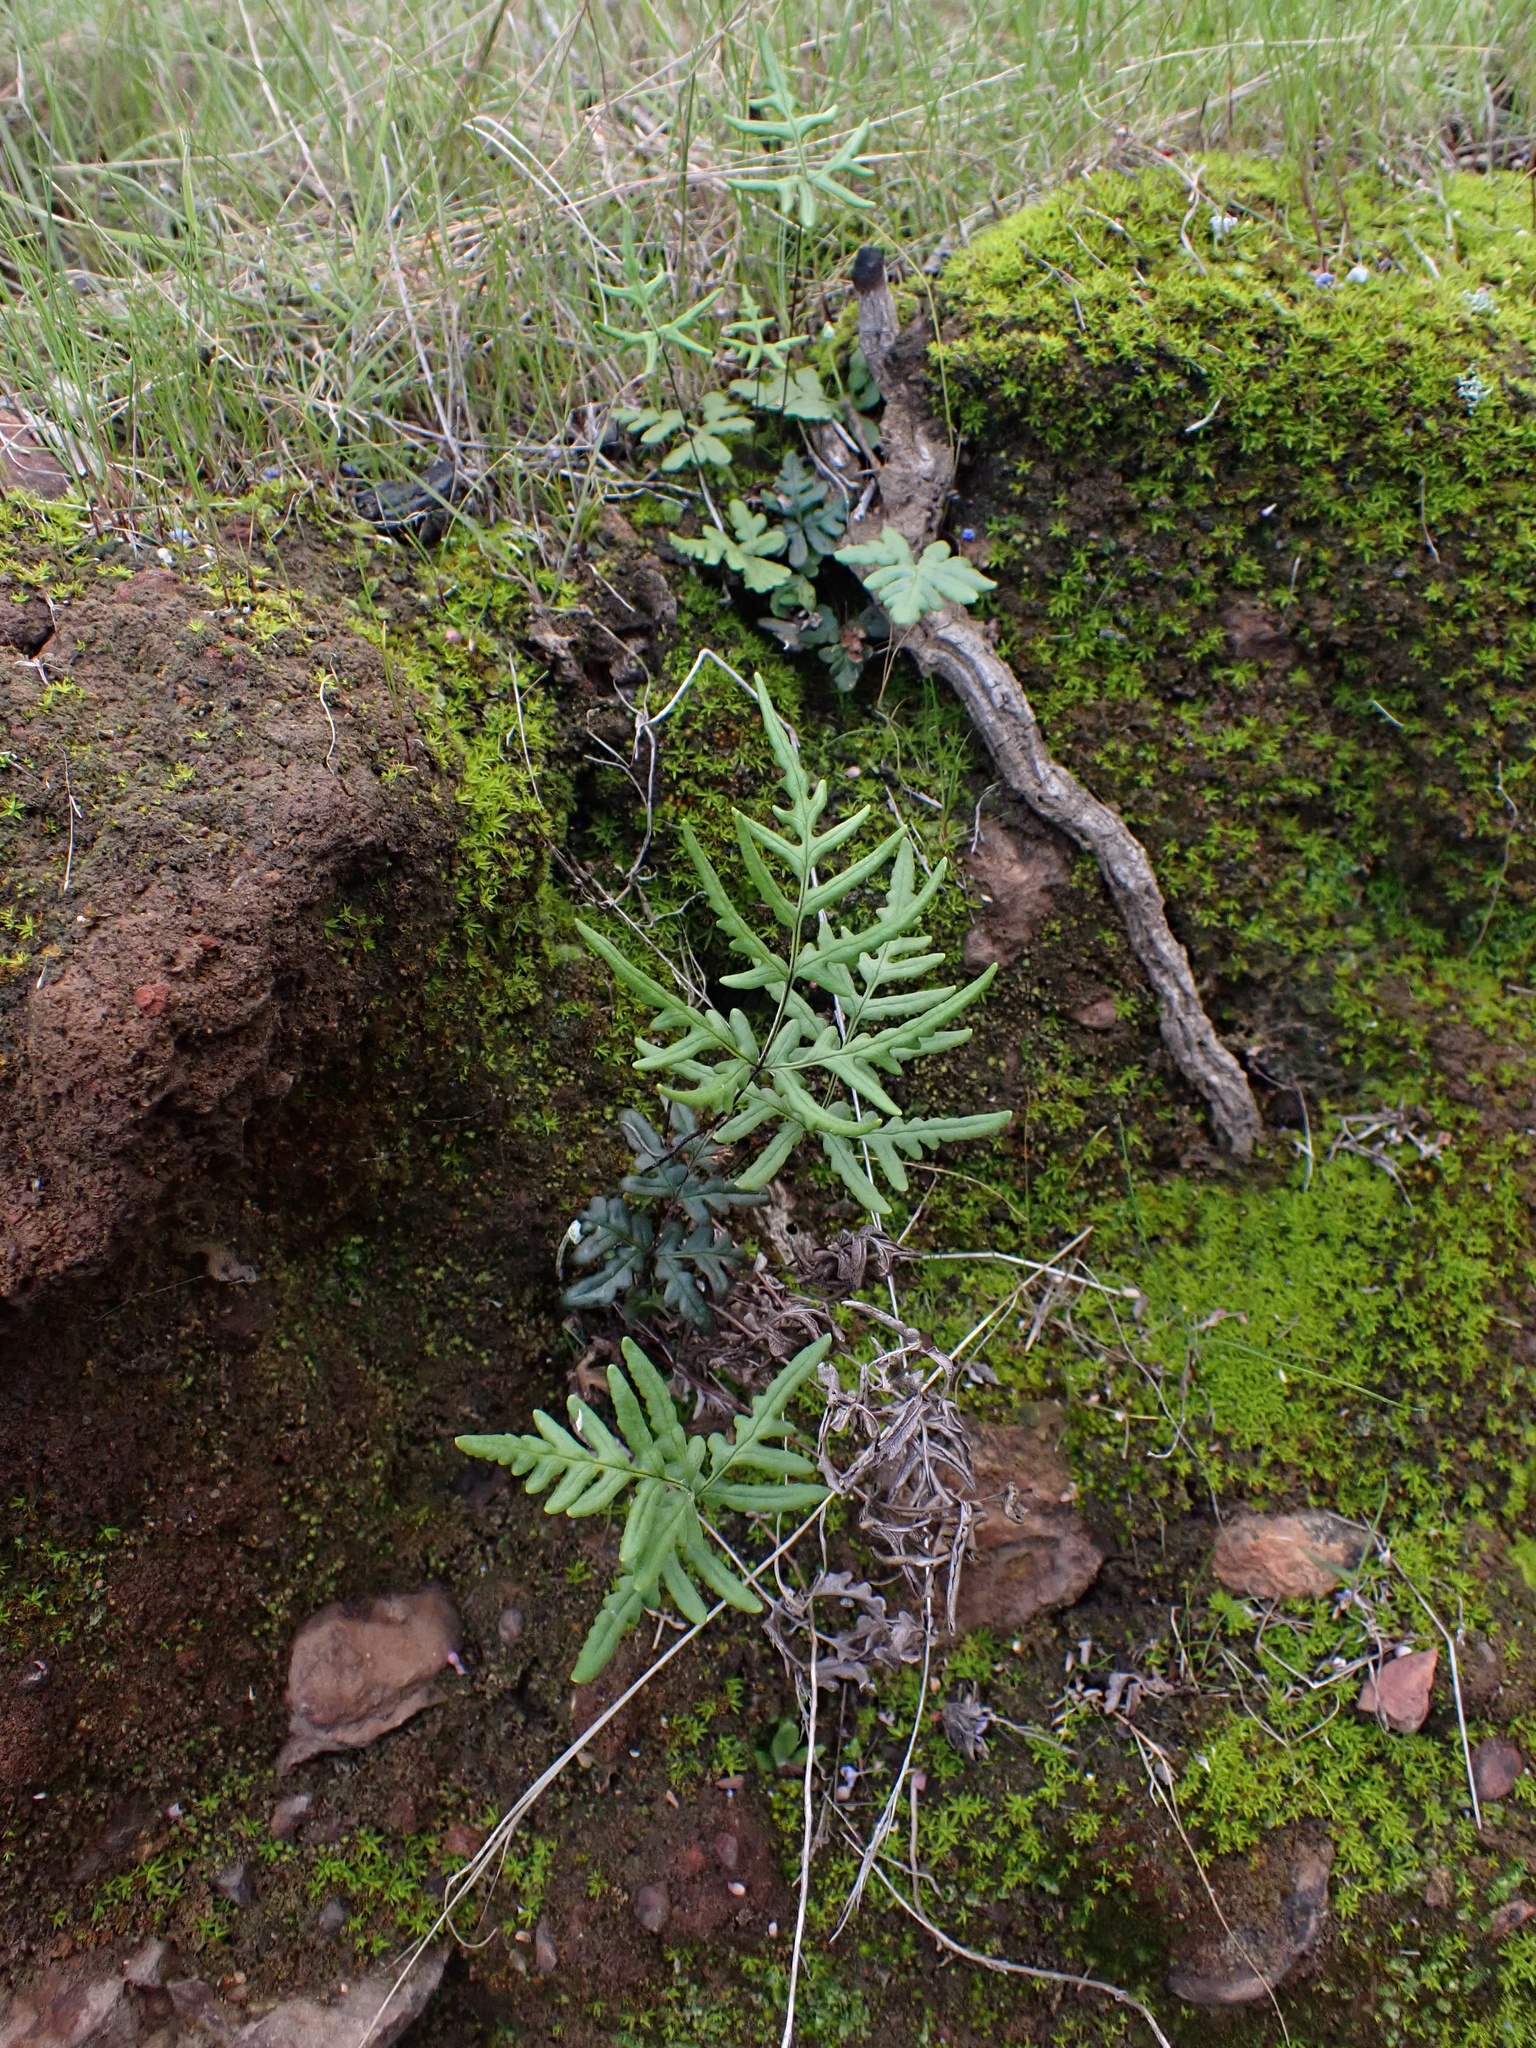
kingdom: Plantae
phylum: Tracheophyta
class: Polypodiopsida
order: Polypodiales
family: Pteridaceae
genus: Pentagramma
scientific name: Pentagramma viscosa
